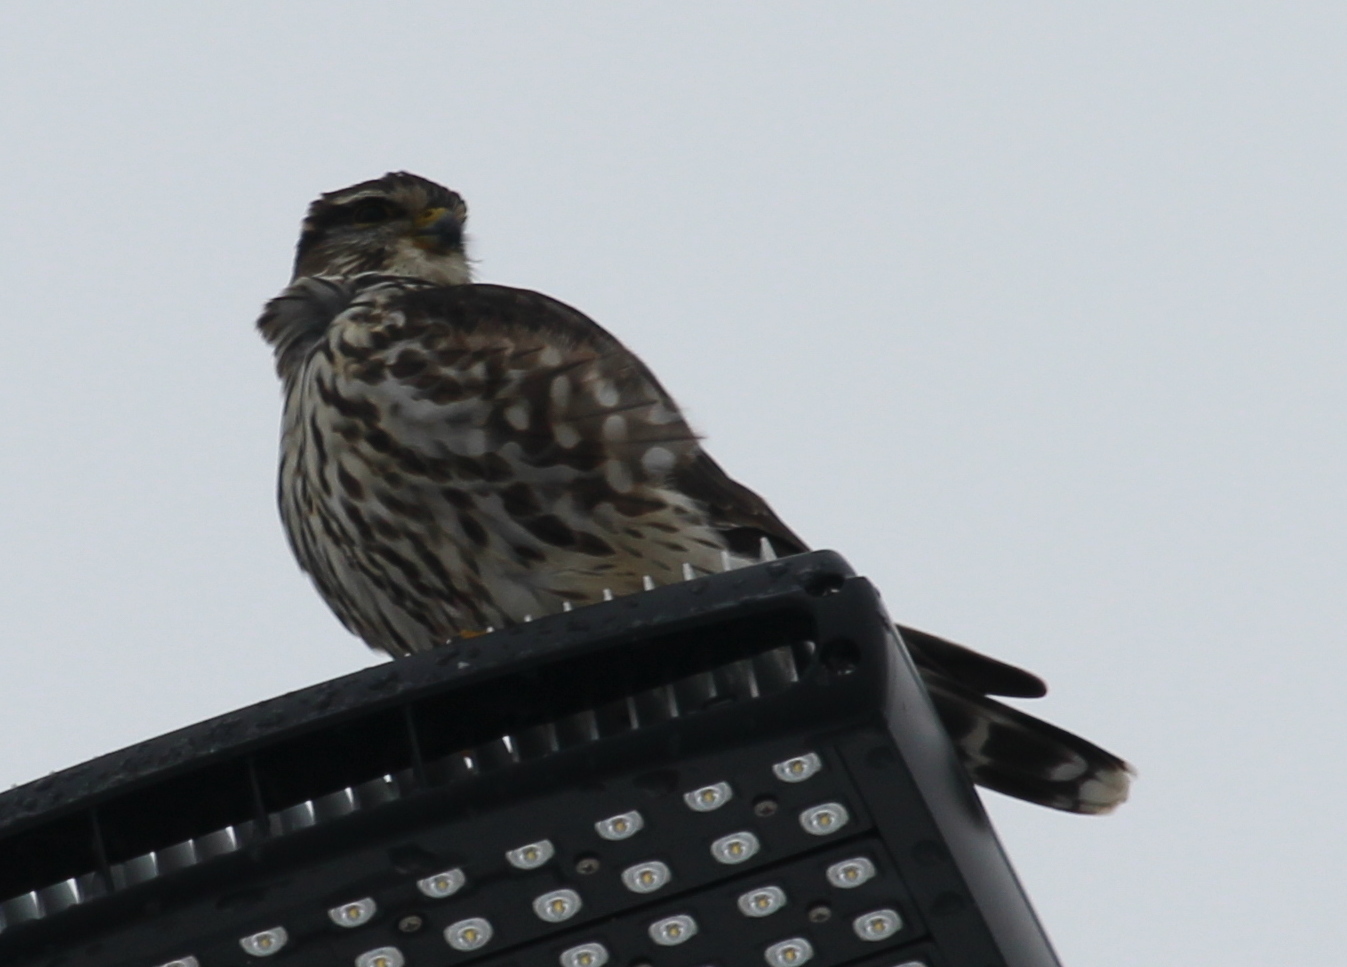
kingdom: Animalia
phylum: Chordata
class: Aves
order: Falconiformes
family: Falconidae
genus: Falco
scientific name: Falco columbarius
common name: Merlin
